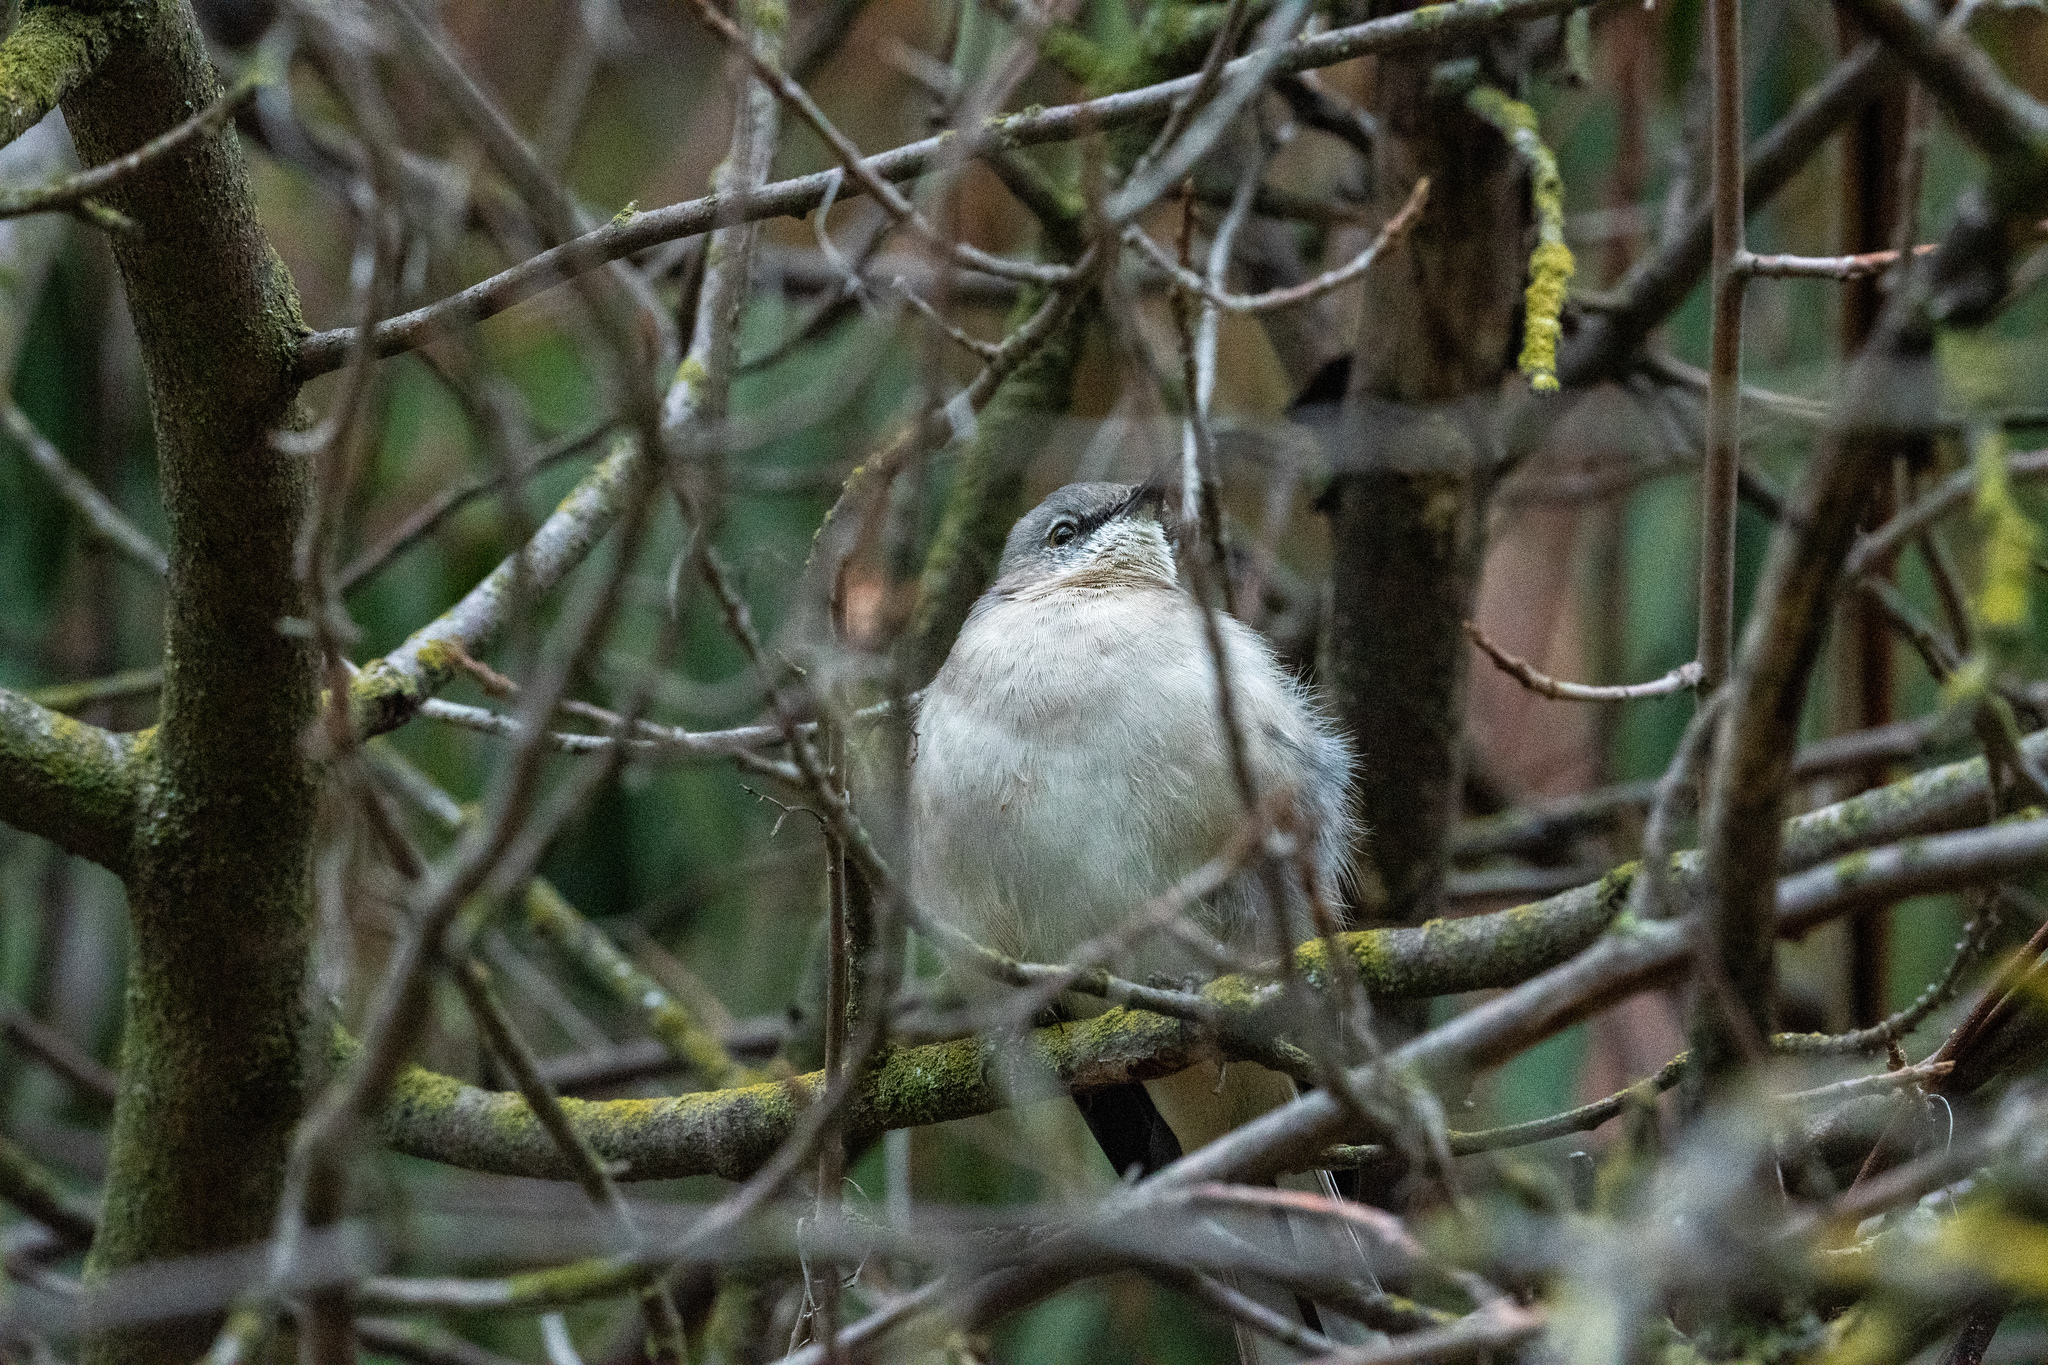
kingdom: Animalia
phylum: Chordata
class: Aves
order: Passeriformes
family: Mimidae
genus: Mimus
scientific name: Mimus polyglottos
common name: Northern mockingbird
